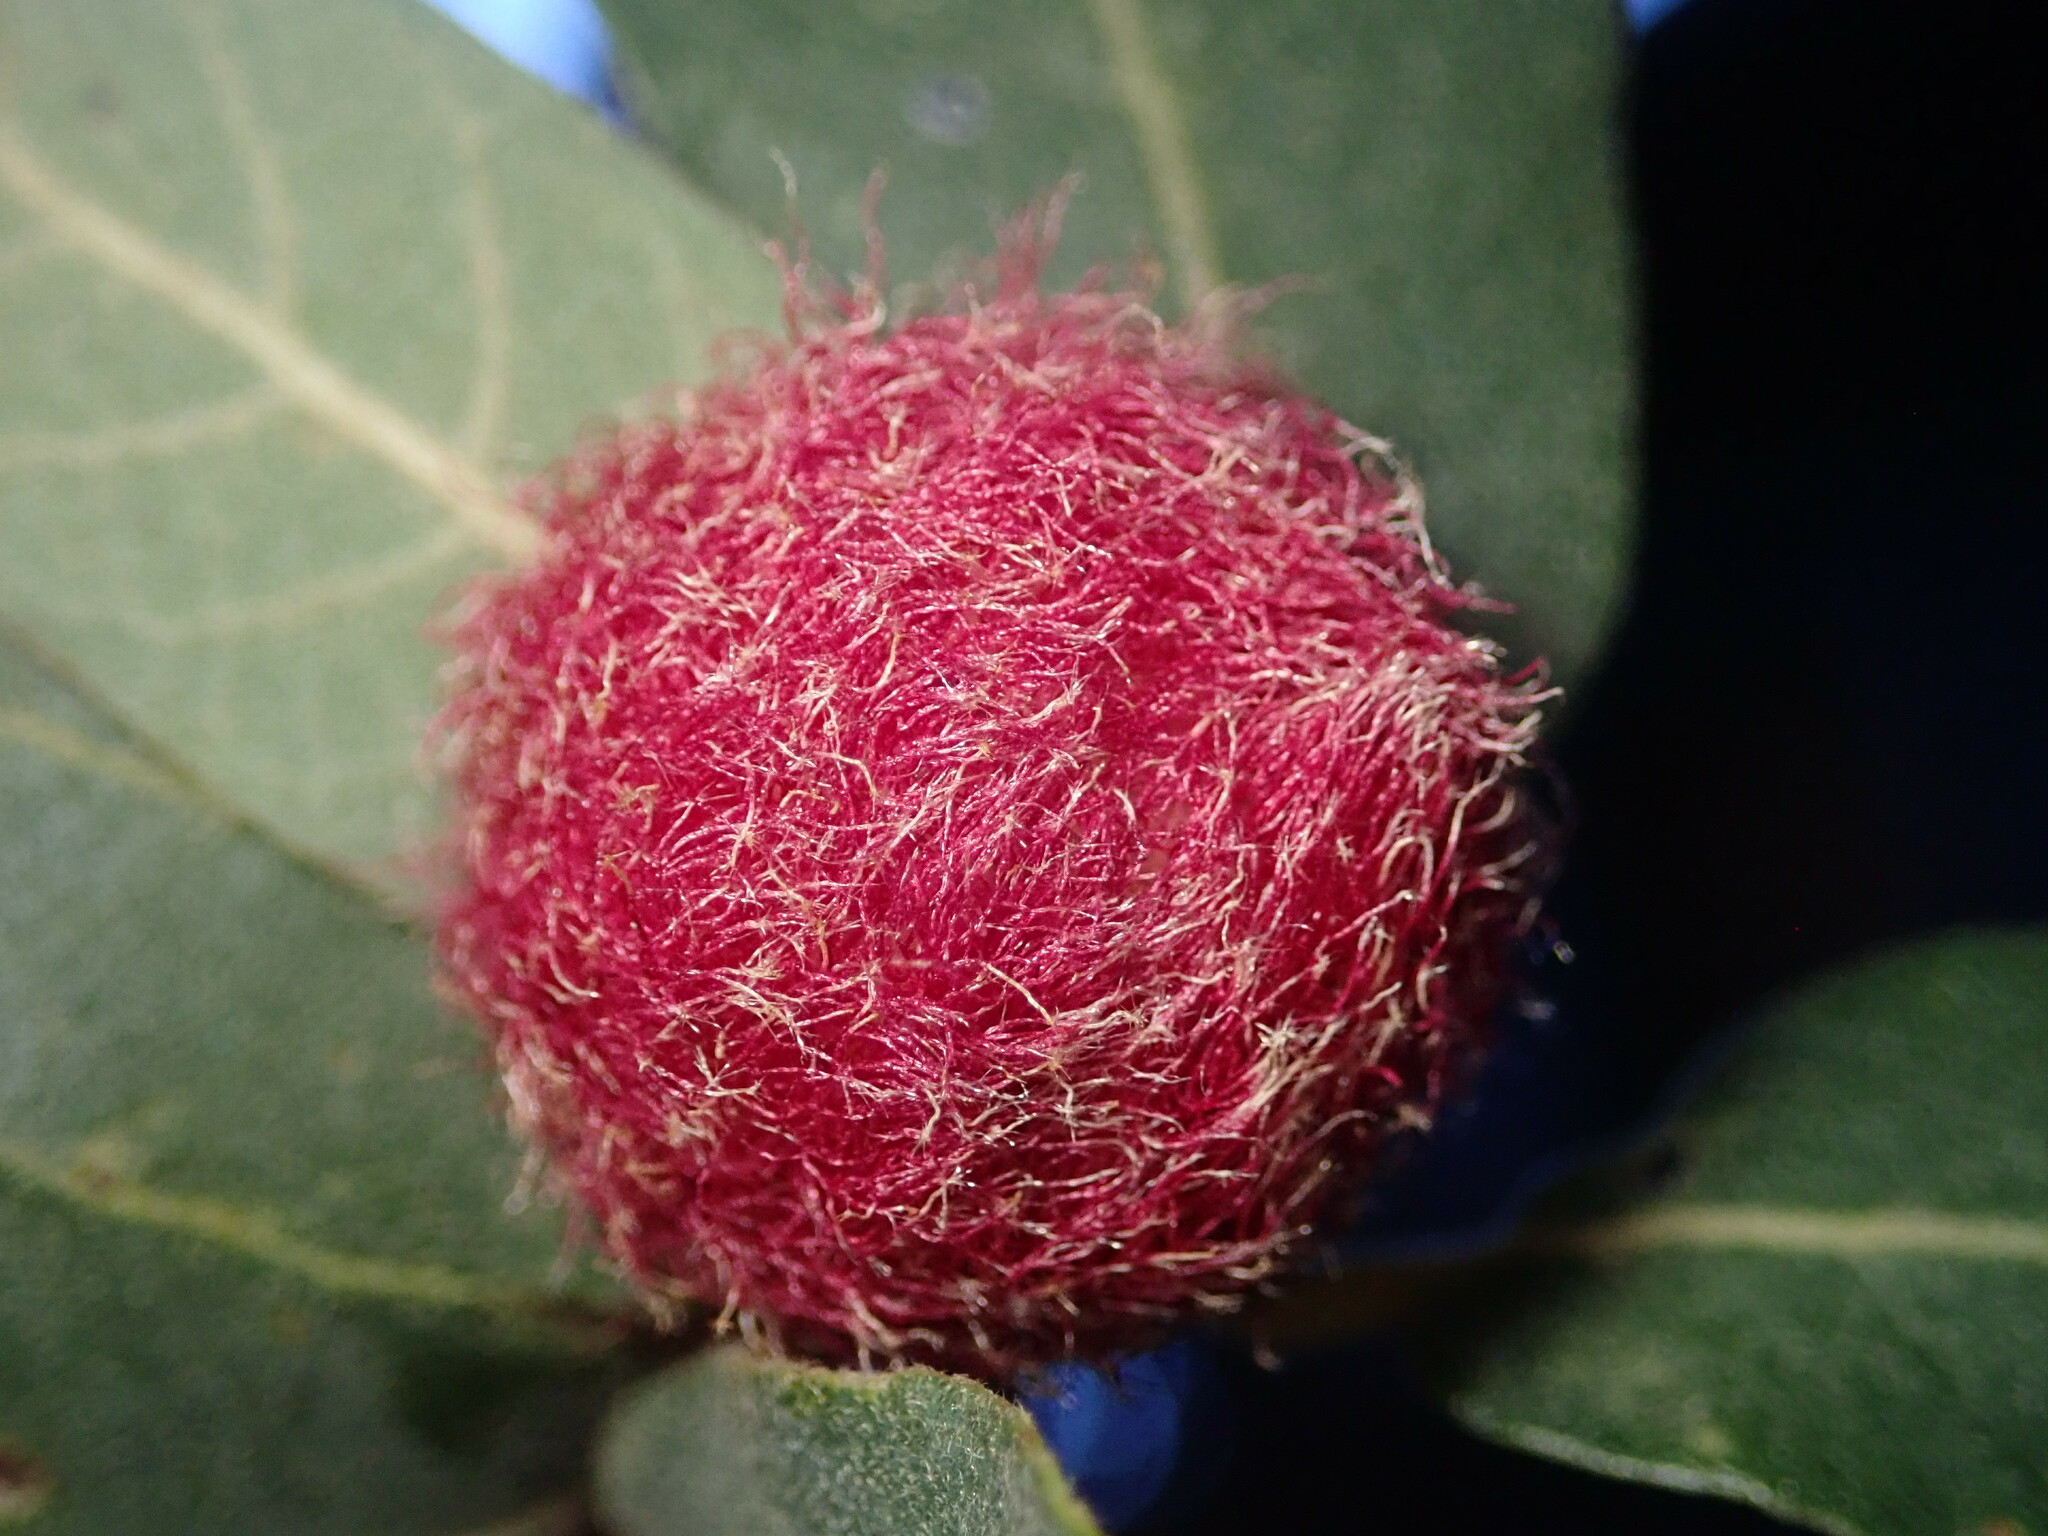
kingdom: Animalia
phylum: Arthropoda
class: Insecta
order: Hymenoptera
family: Cynipidae
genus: Cynips
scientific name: Cynips
